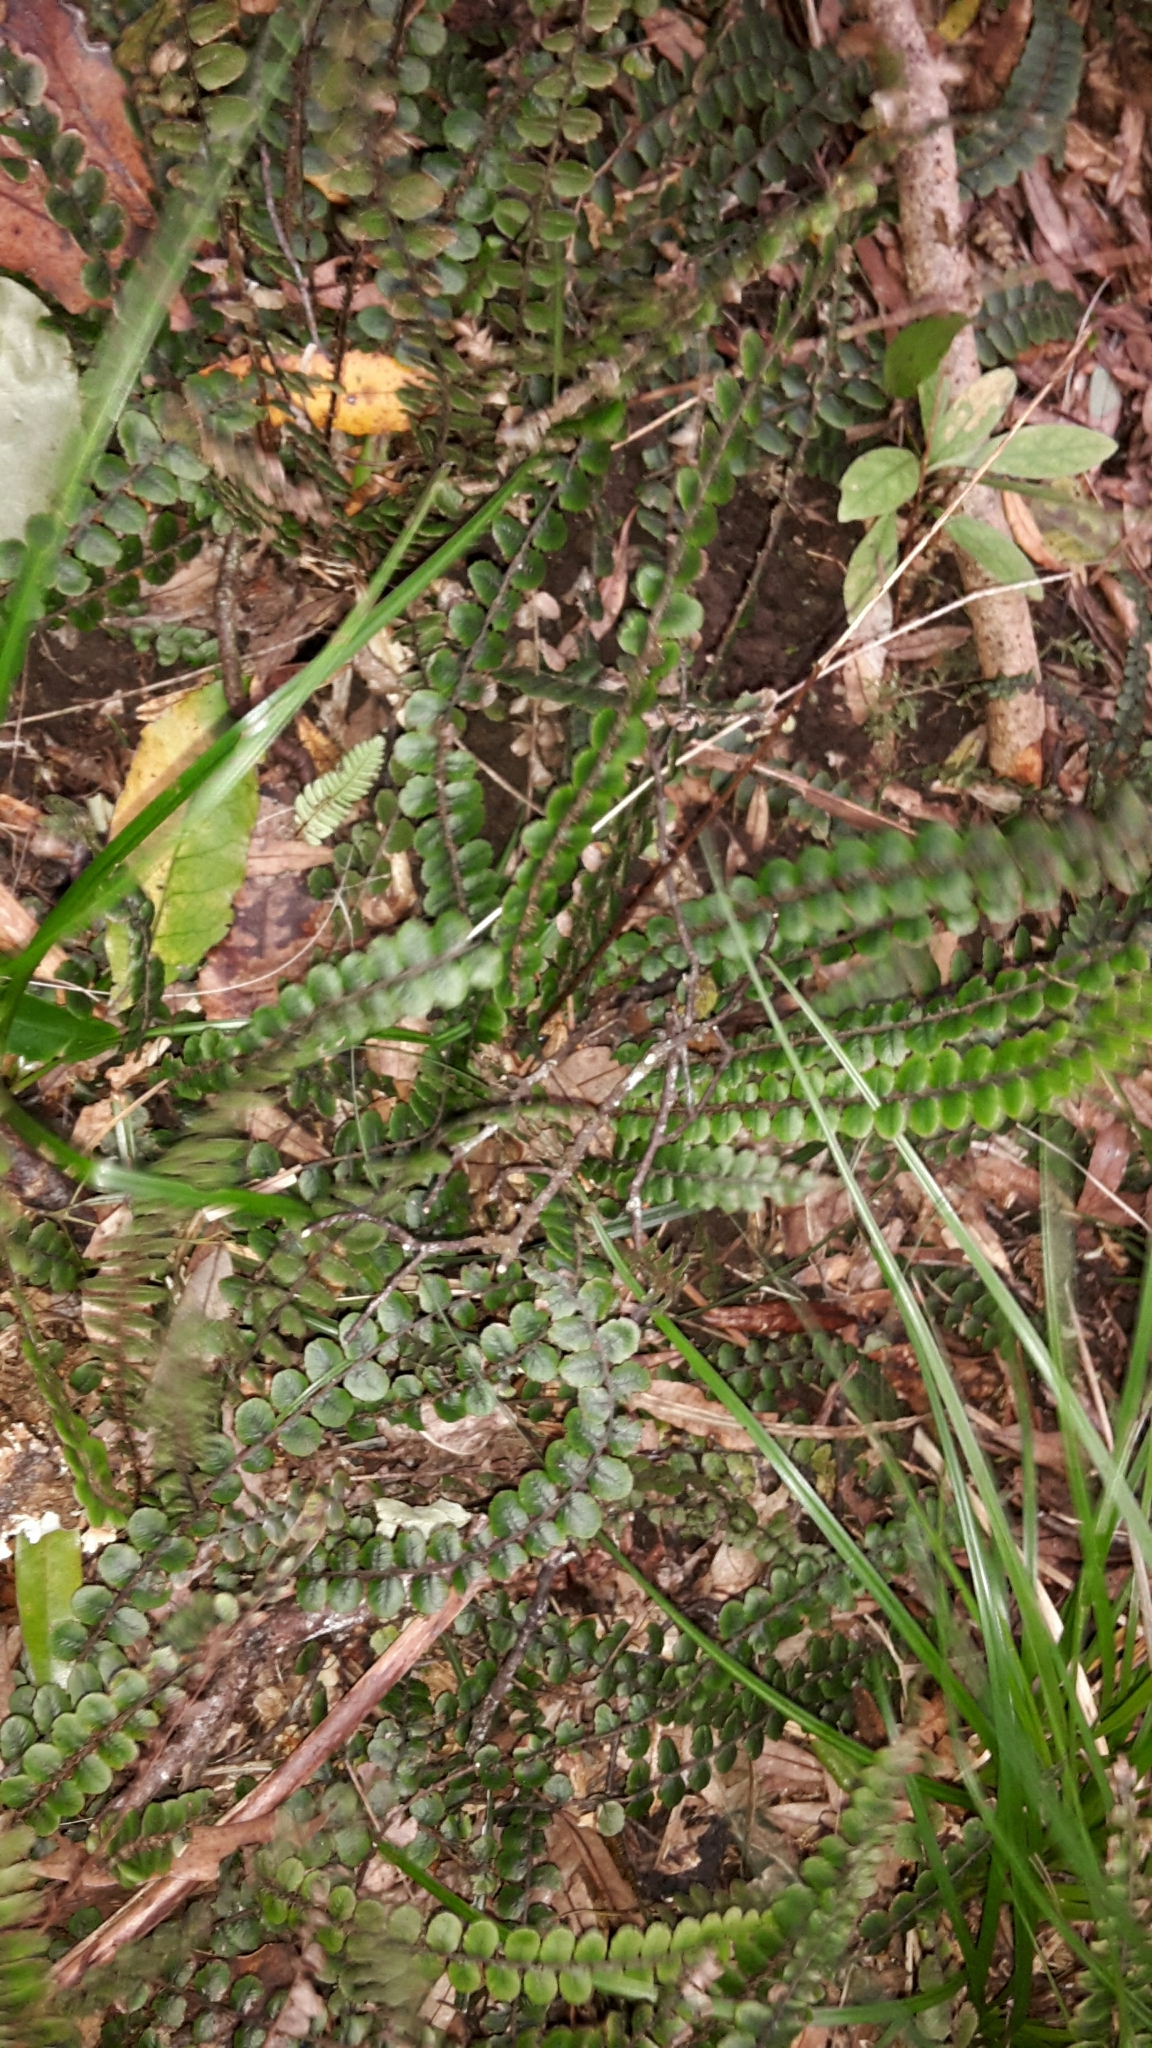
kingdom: Plantae
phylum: Tracheophyta
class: Polypodiopsida
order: Polypodiales
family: Blechnaceae
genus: Cranfillia
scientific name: Cranfillia fluviatilis
